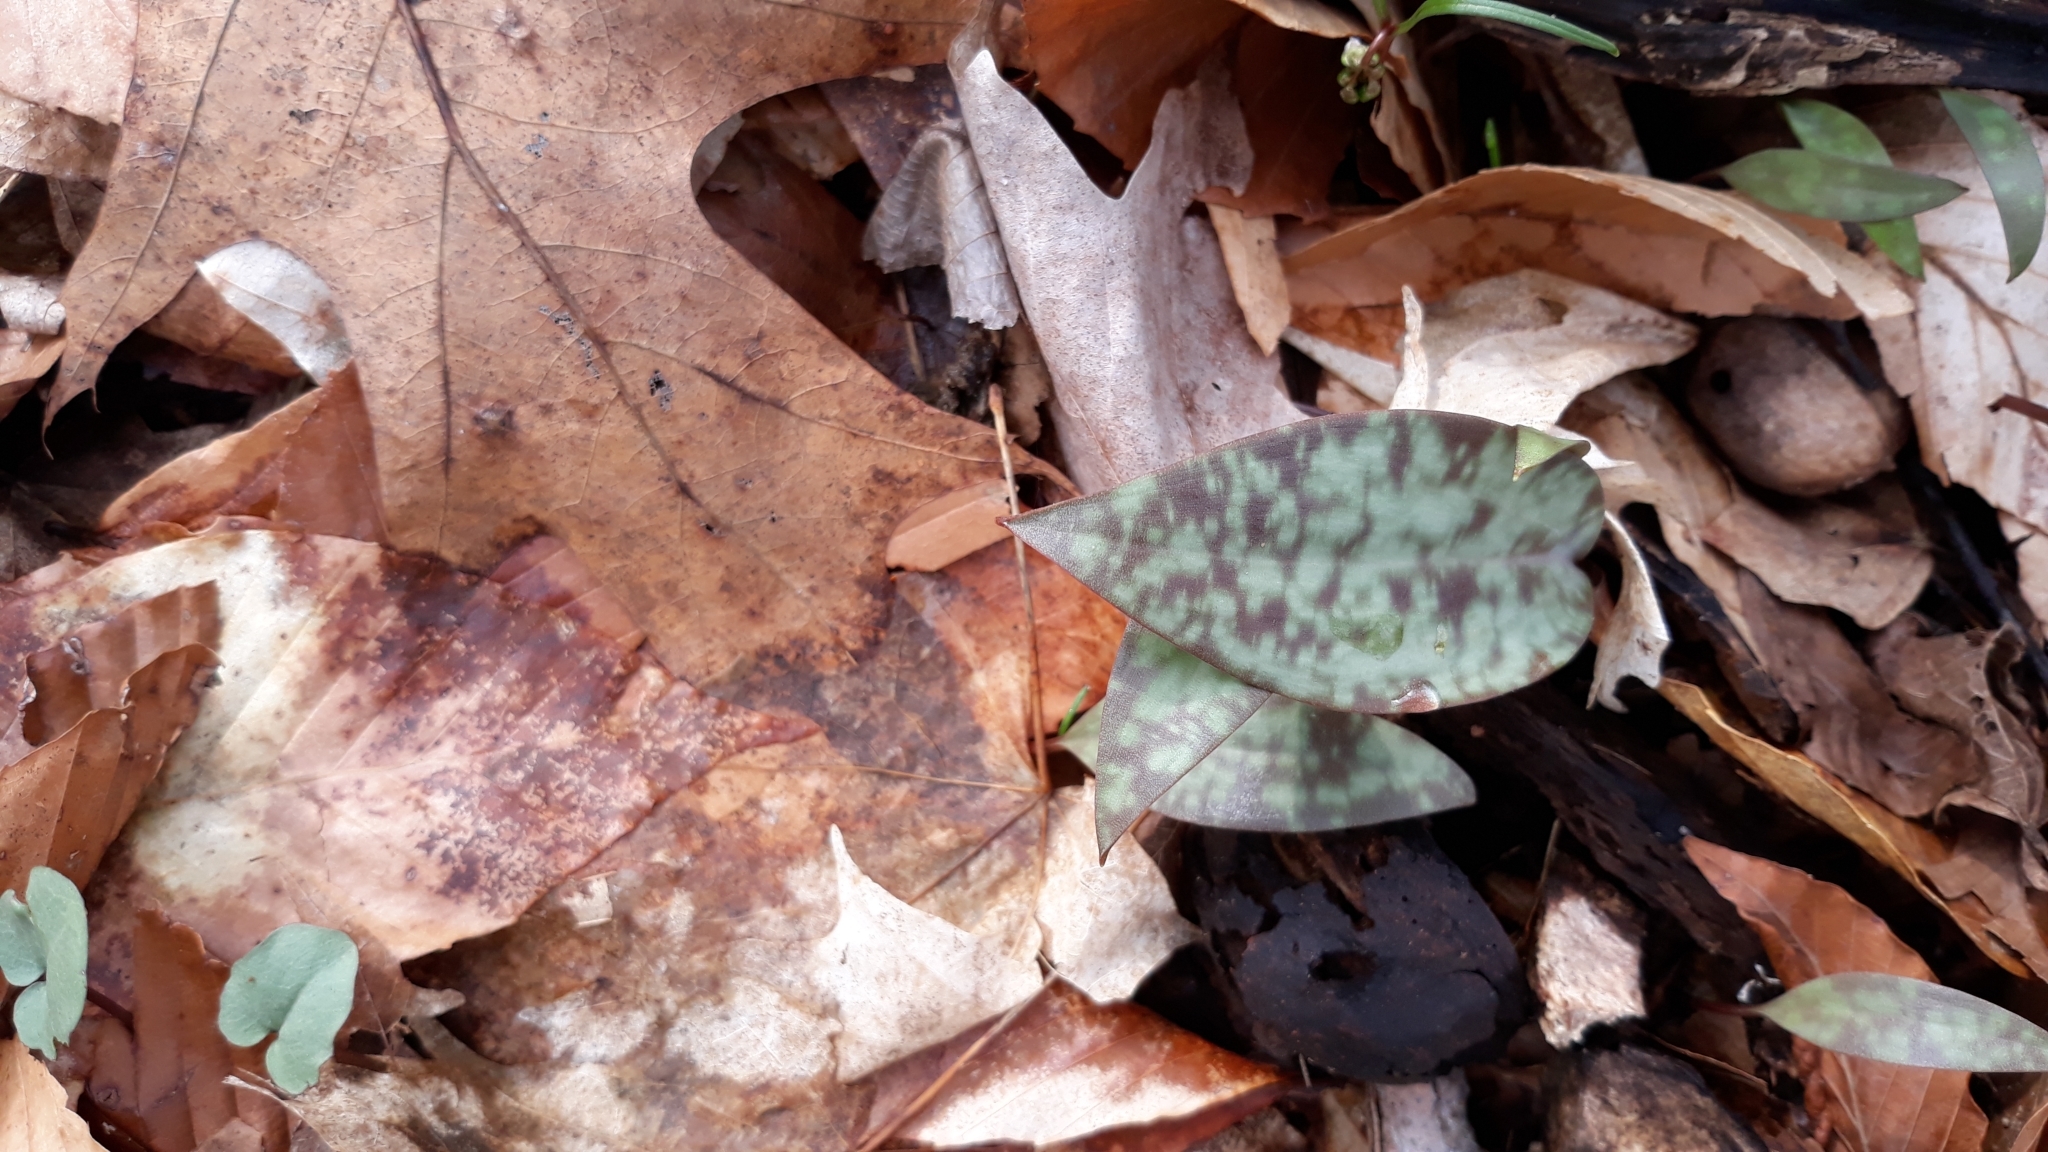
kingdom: Plantae
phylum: Tracheophyta
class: Liliopsida
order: Liliales
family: Liliaceae
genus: Erythronium
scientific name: Erythronium americanum
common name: Yellow adder's-tongue
